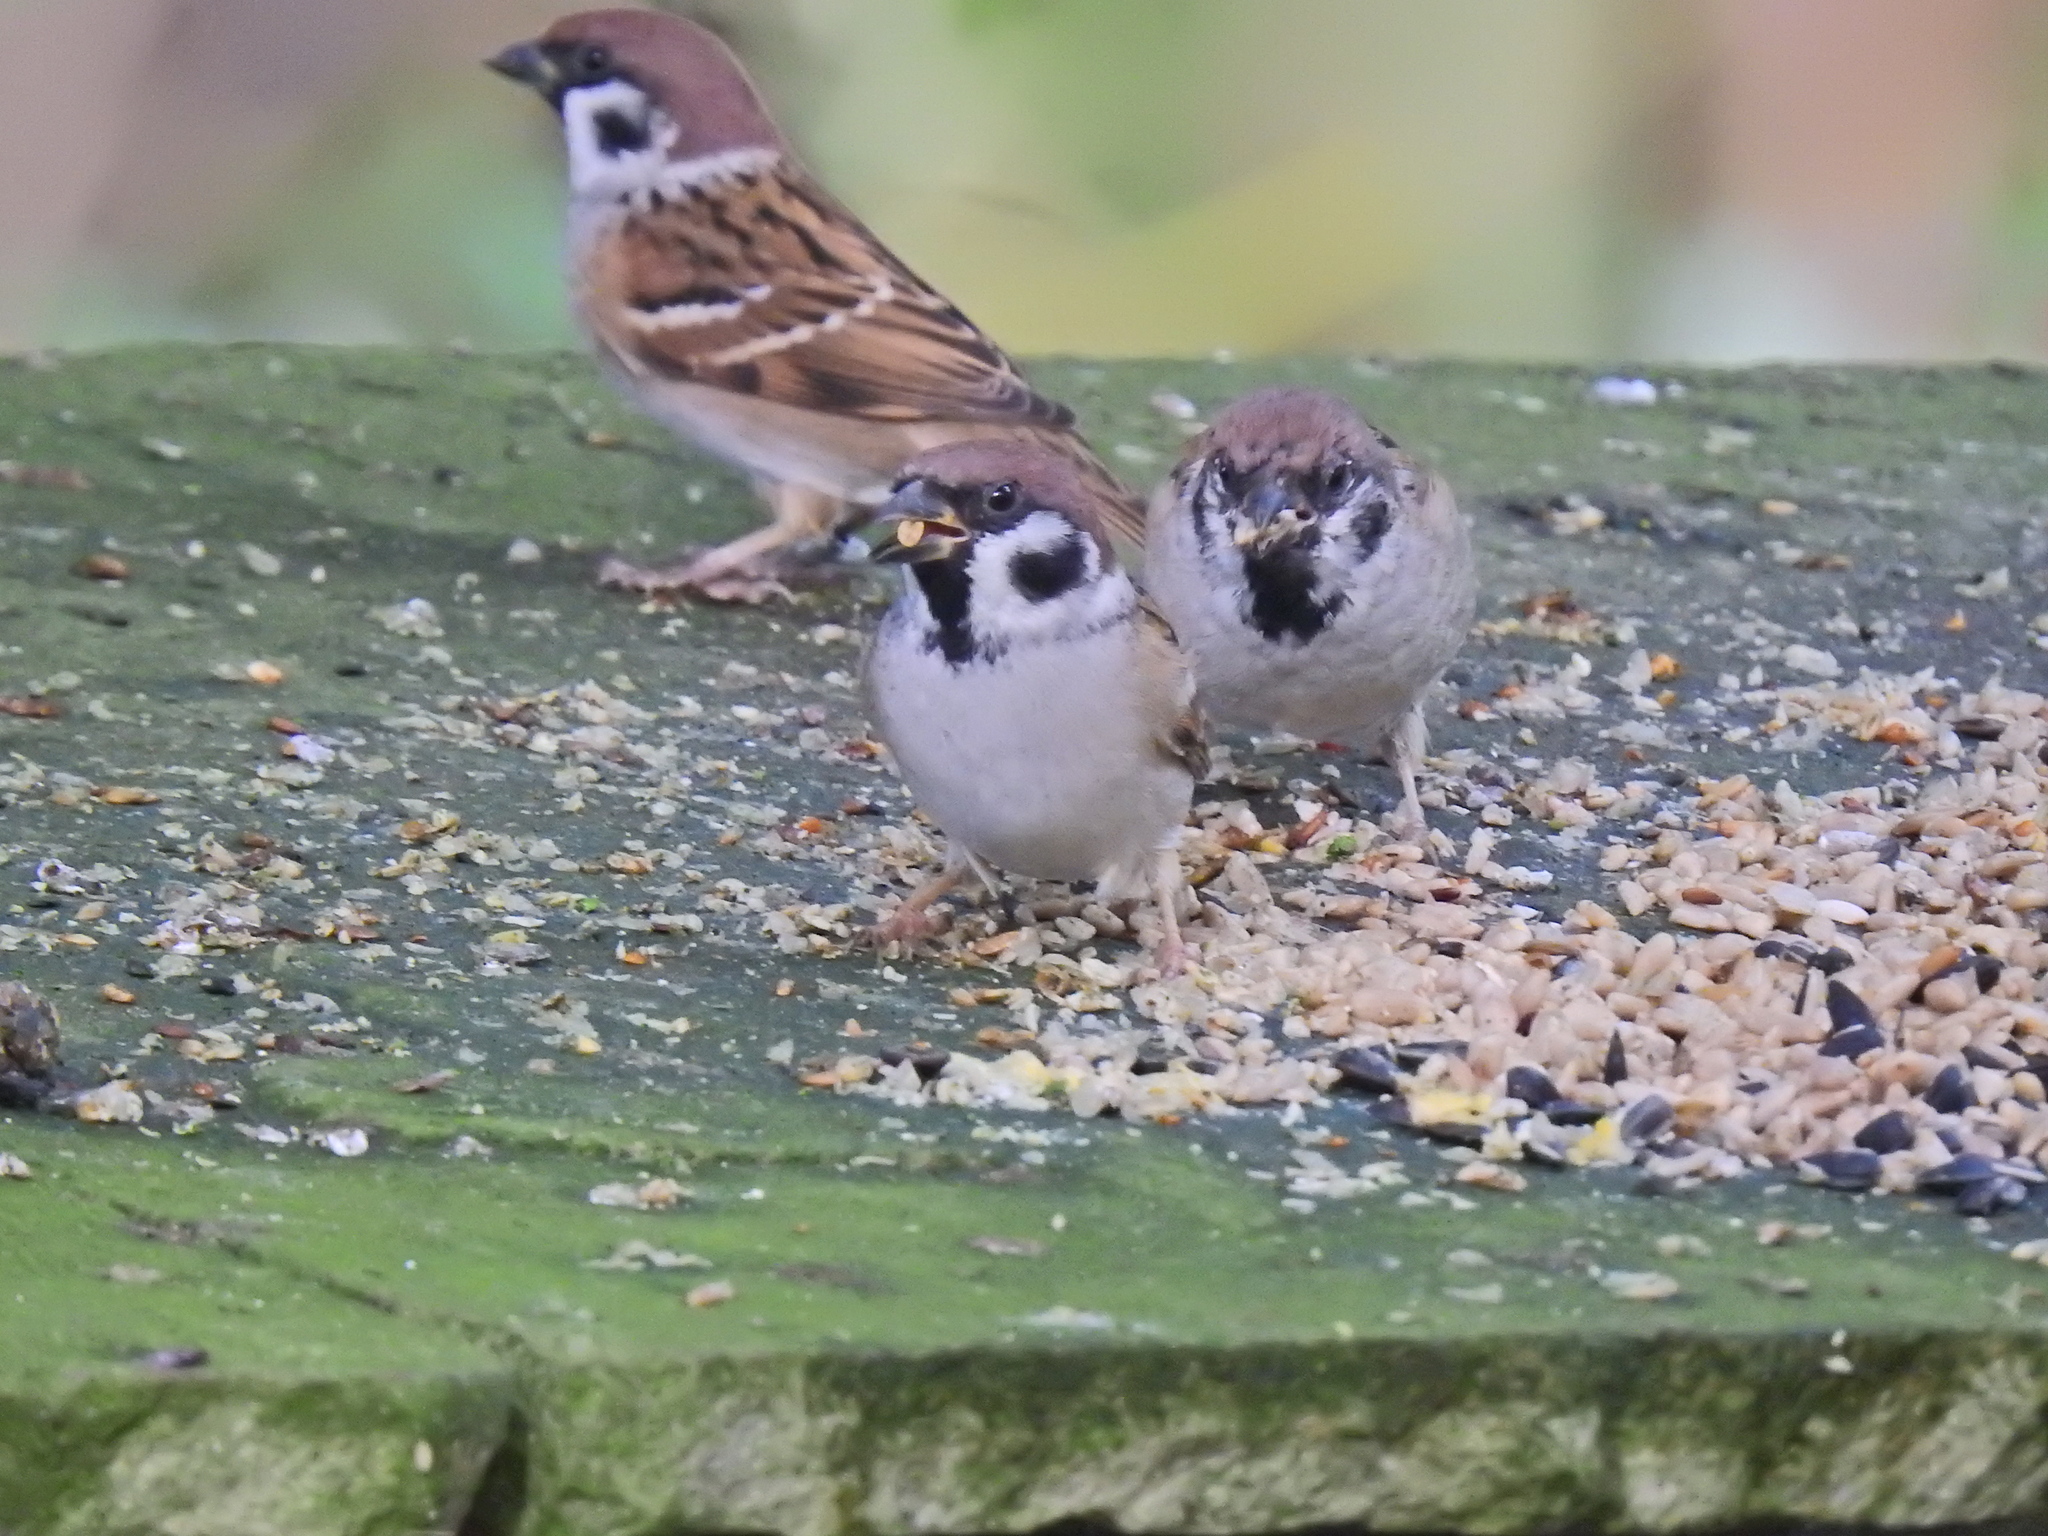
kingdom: Animalia
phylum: Chordata
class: Aves
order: Passeriformes
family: Passeridae
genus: Passer
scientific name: Passer montanus
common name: Eurasian tree sparrow
